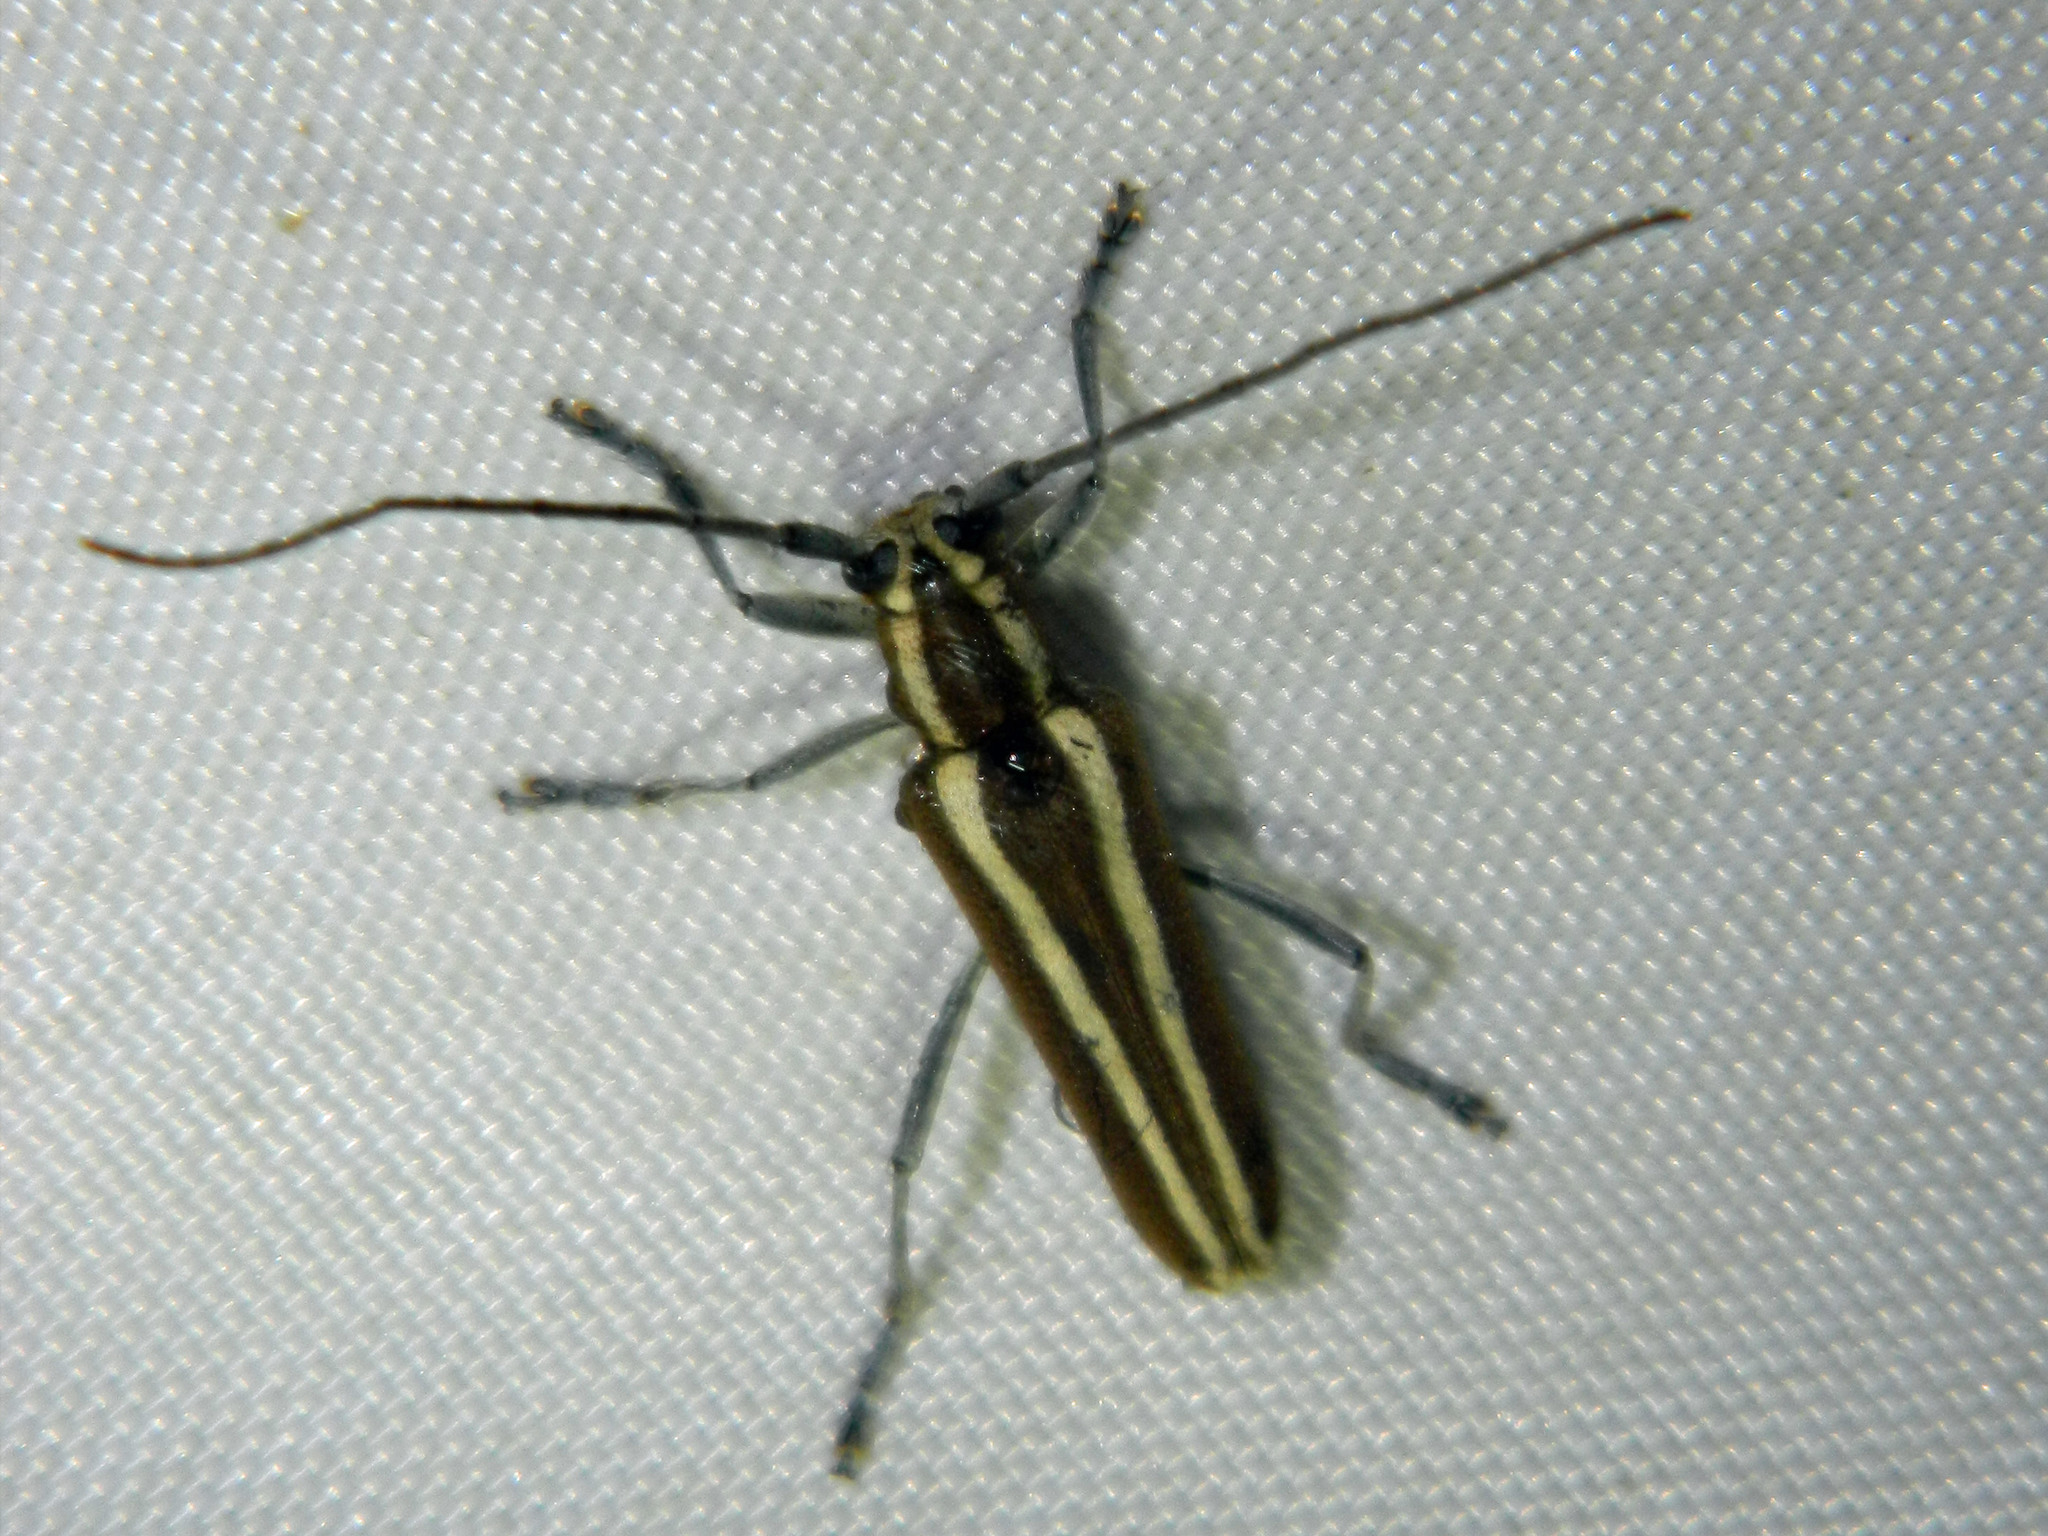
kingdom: Animalia
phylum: Arthropoda
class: Insecta
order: Coleoptera
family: Cerambycidae
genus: Saperda
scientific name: Saperda candida
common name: Round-headed borer
